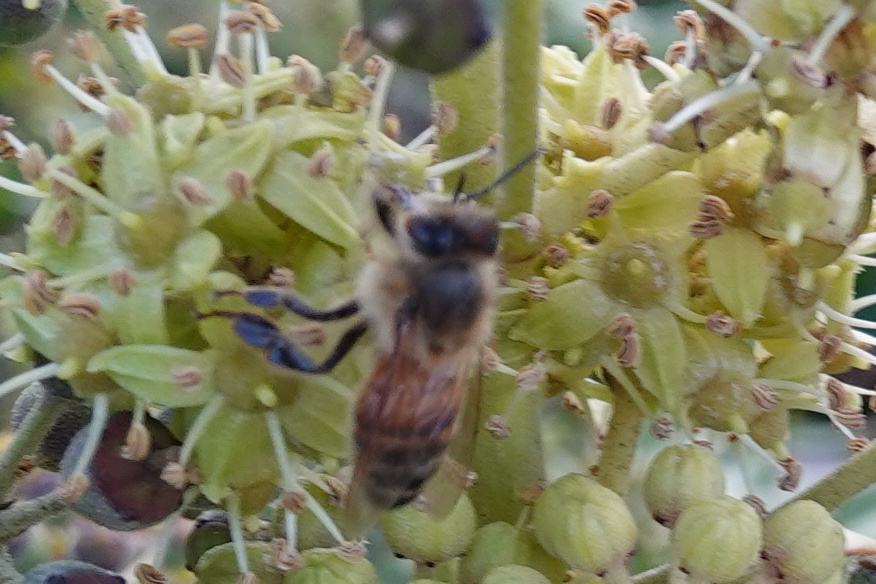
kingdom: Animalia
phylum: Arthropoda
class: Insecta
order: Hymenoptera
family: Apidae
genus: Apis
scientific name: Apis mellifera
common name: Honey bee
